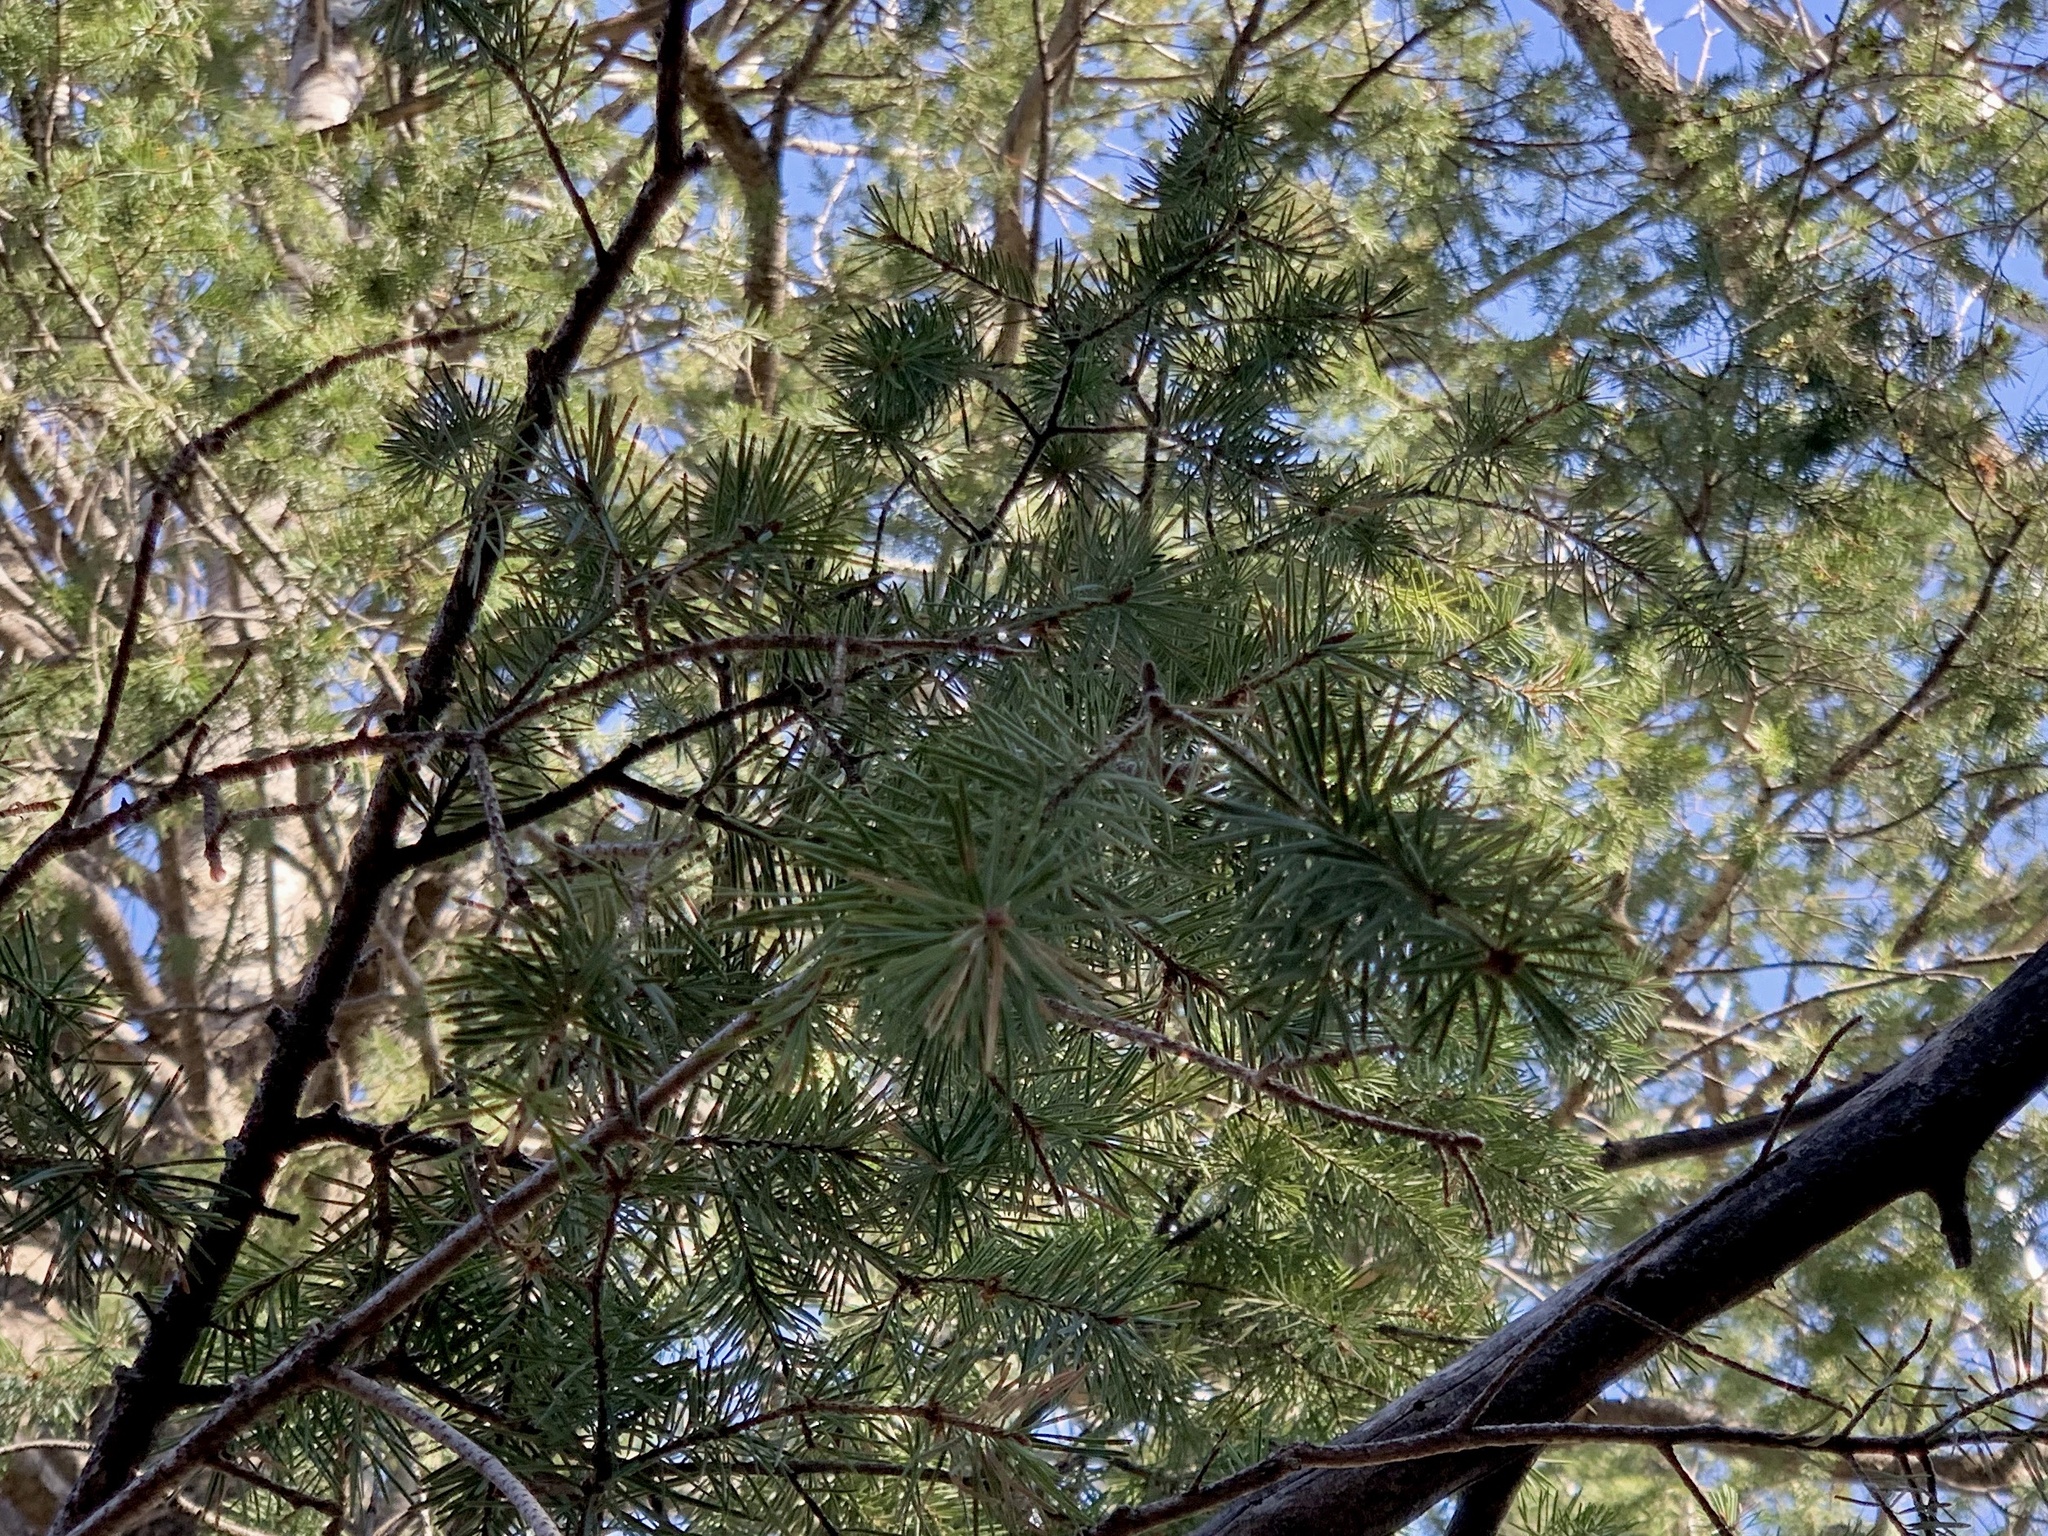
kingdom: Plantae
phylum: Tracheophyta
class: Pinopsida
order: Pinales
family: Pinaceae
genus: Pseudotsuga
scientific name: Pseudotsuga menziesii
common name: Douglas fir
